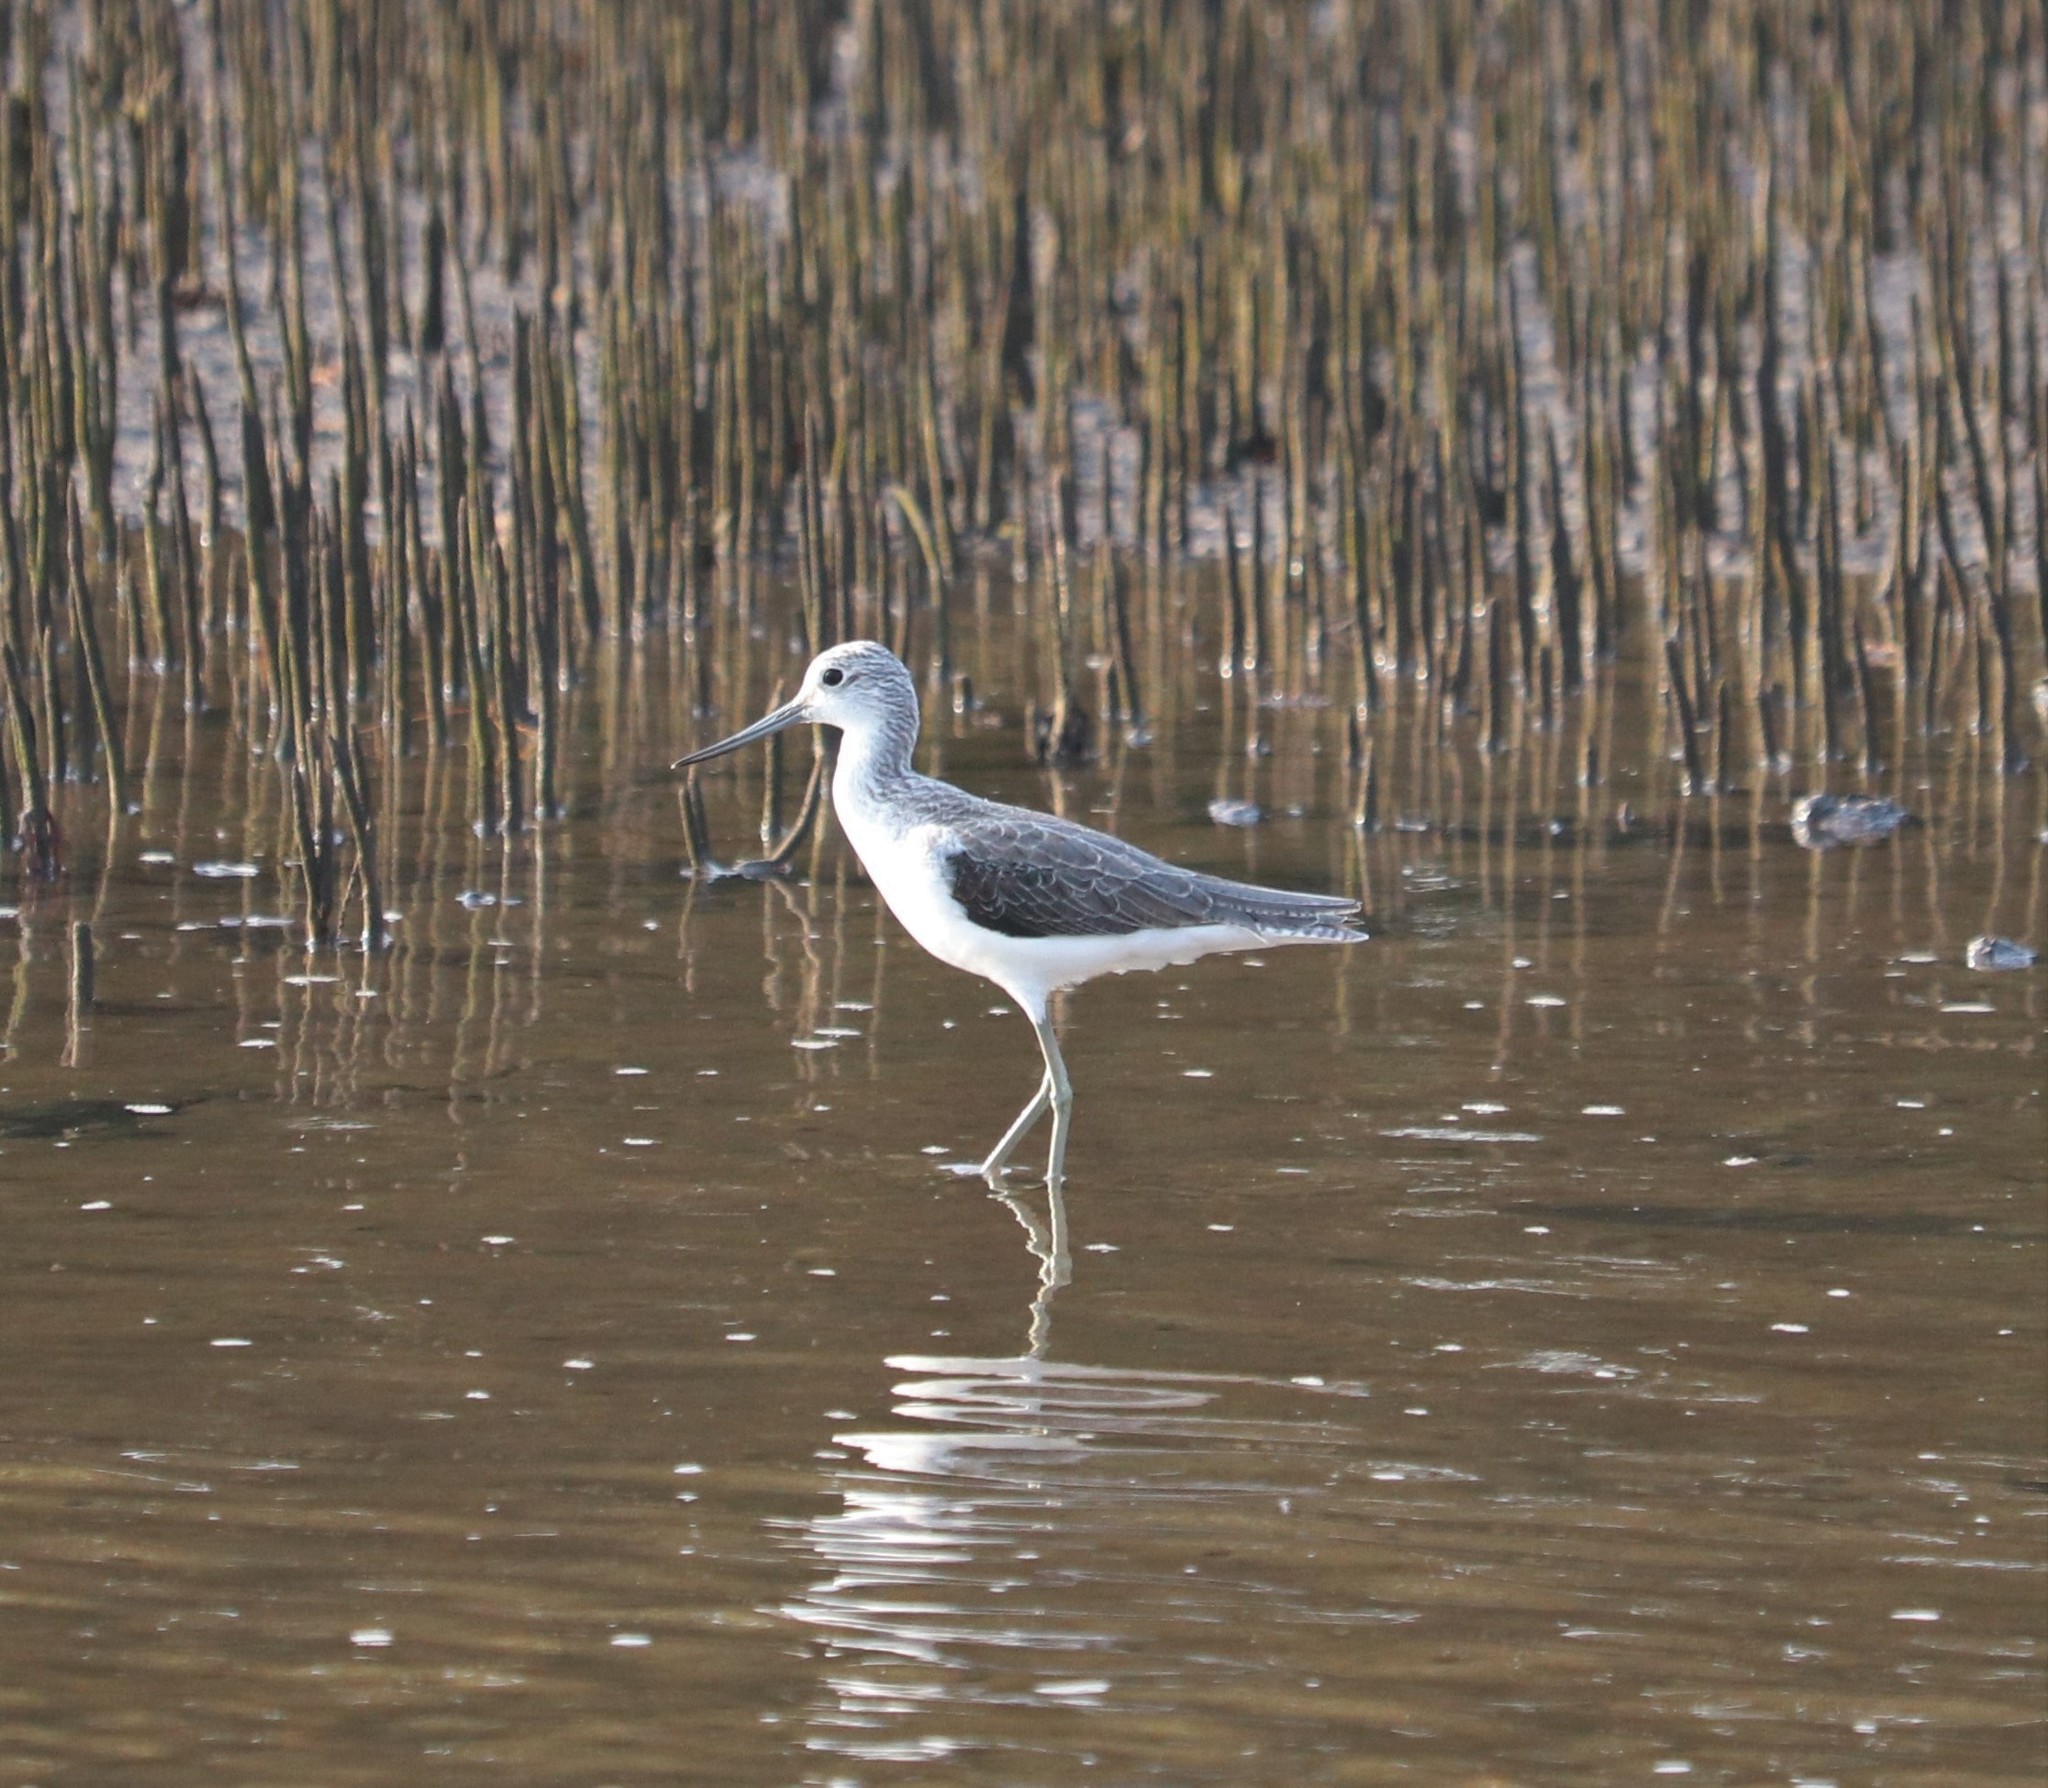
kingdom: Animalia
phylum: Chordata
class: Aves
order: Charadriiformes
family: Scolopacidae
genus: Tringa
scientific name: Tringa nebularia
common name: Common greenshank
